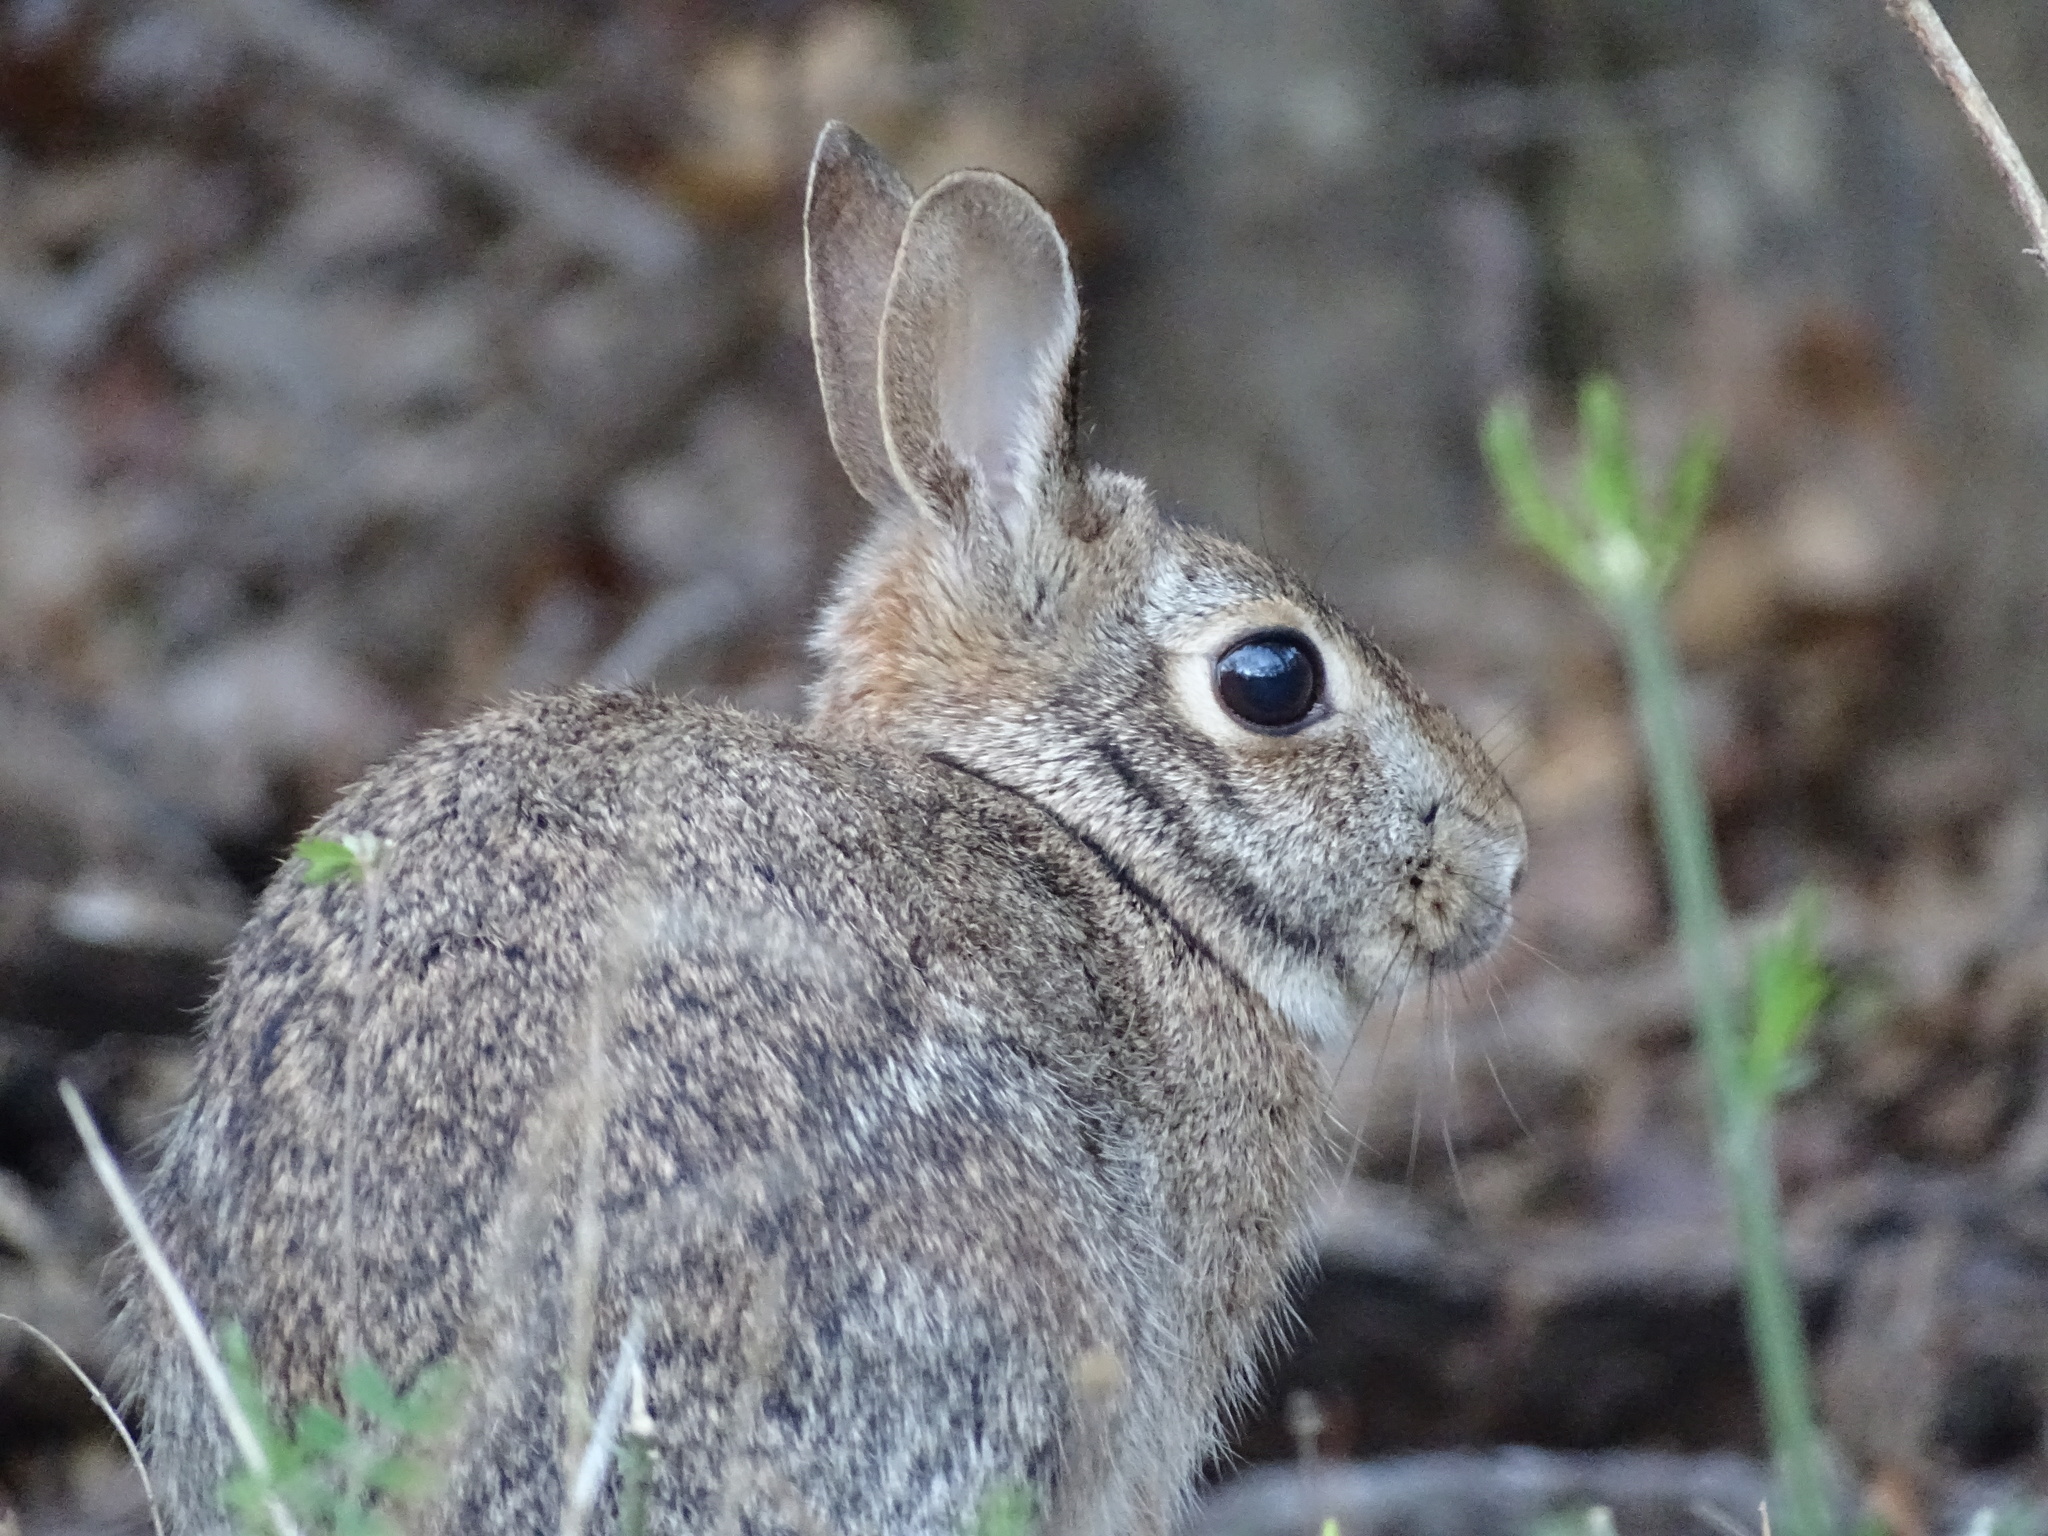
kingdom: Animalia
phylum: Chordata
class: Mammalia
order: Lagomorpha
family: Leporidae
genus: Sylvilagus
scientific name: Sylvilagus floridanus
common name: Eastern cottontail
